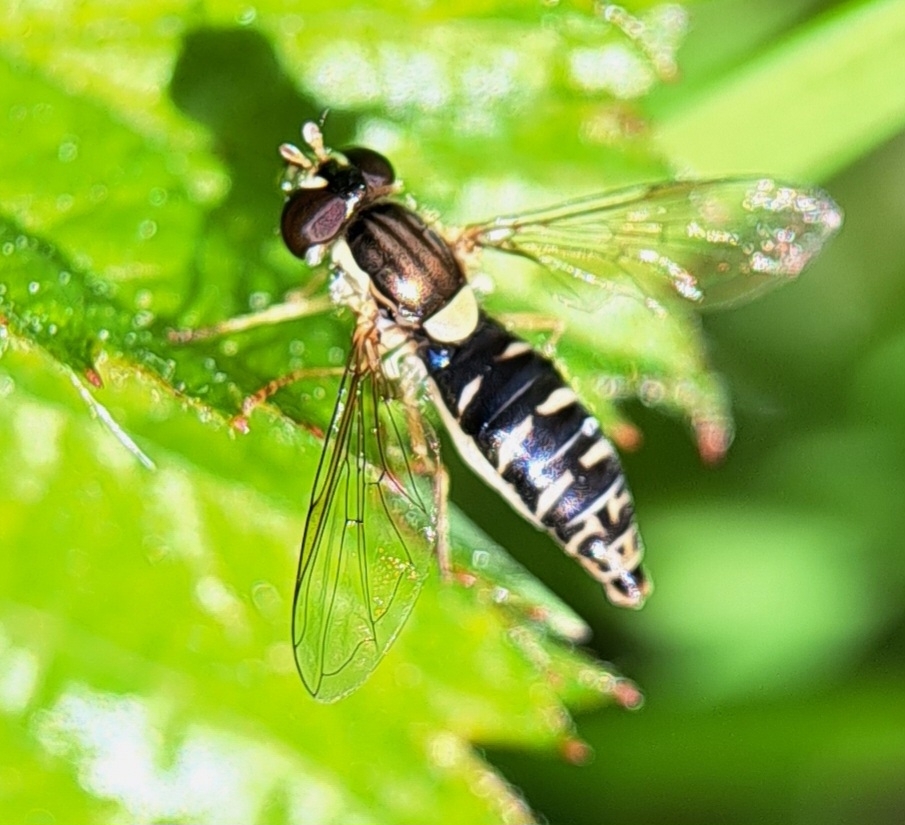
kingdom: Animalia
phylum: Arthropoda
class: Insecta
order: Diptera
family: Syrphidae
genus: Sphaerophoria
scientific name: Sphaerophoria
